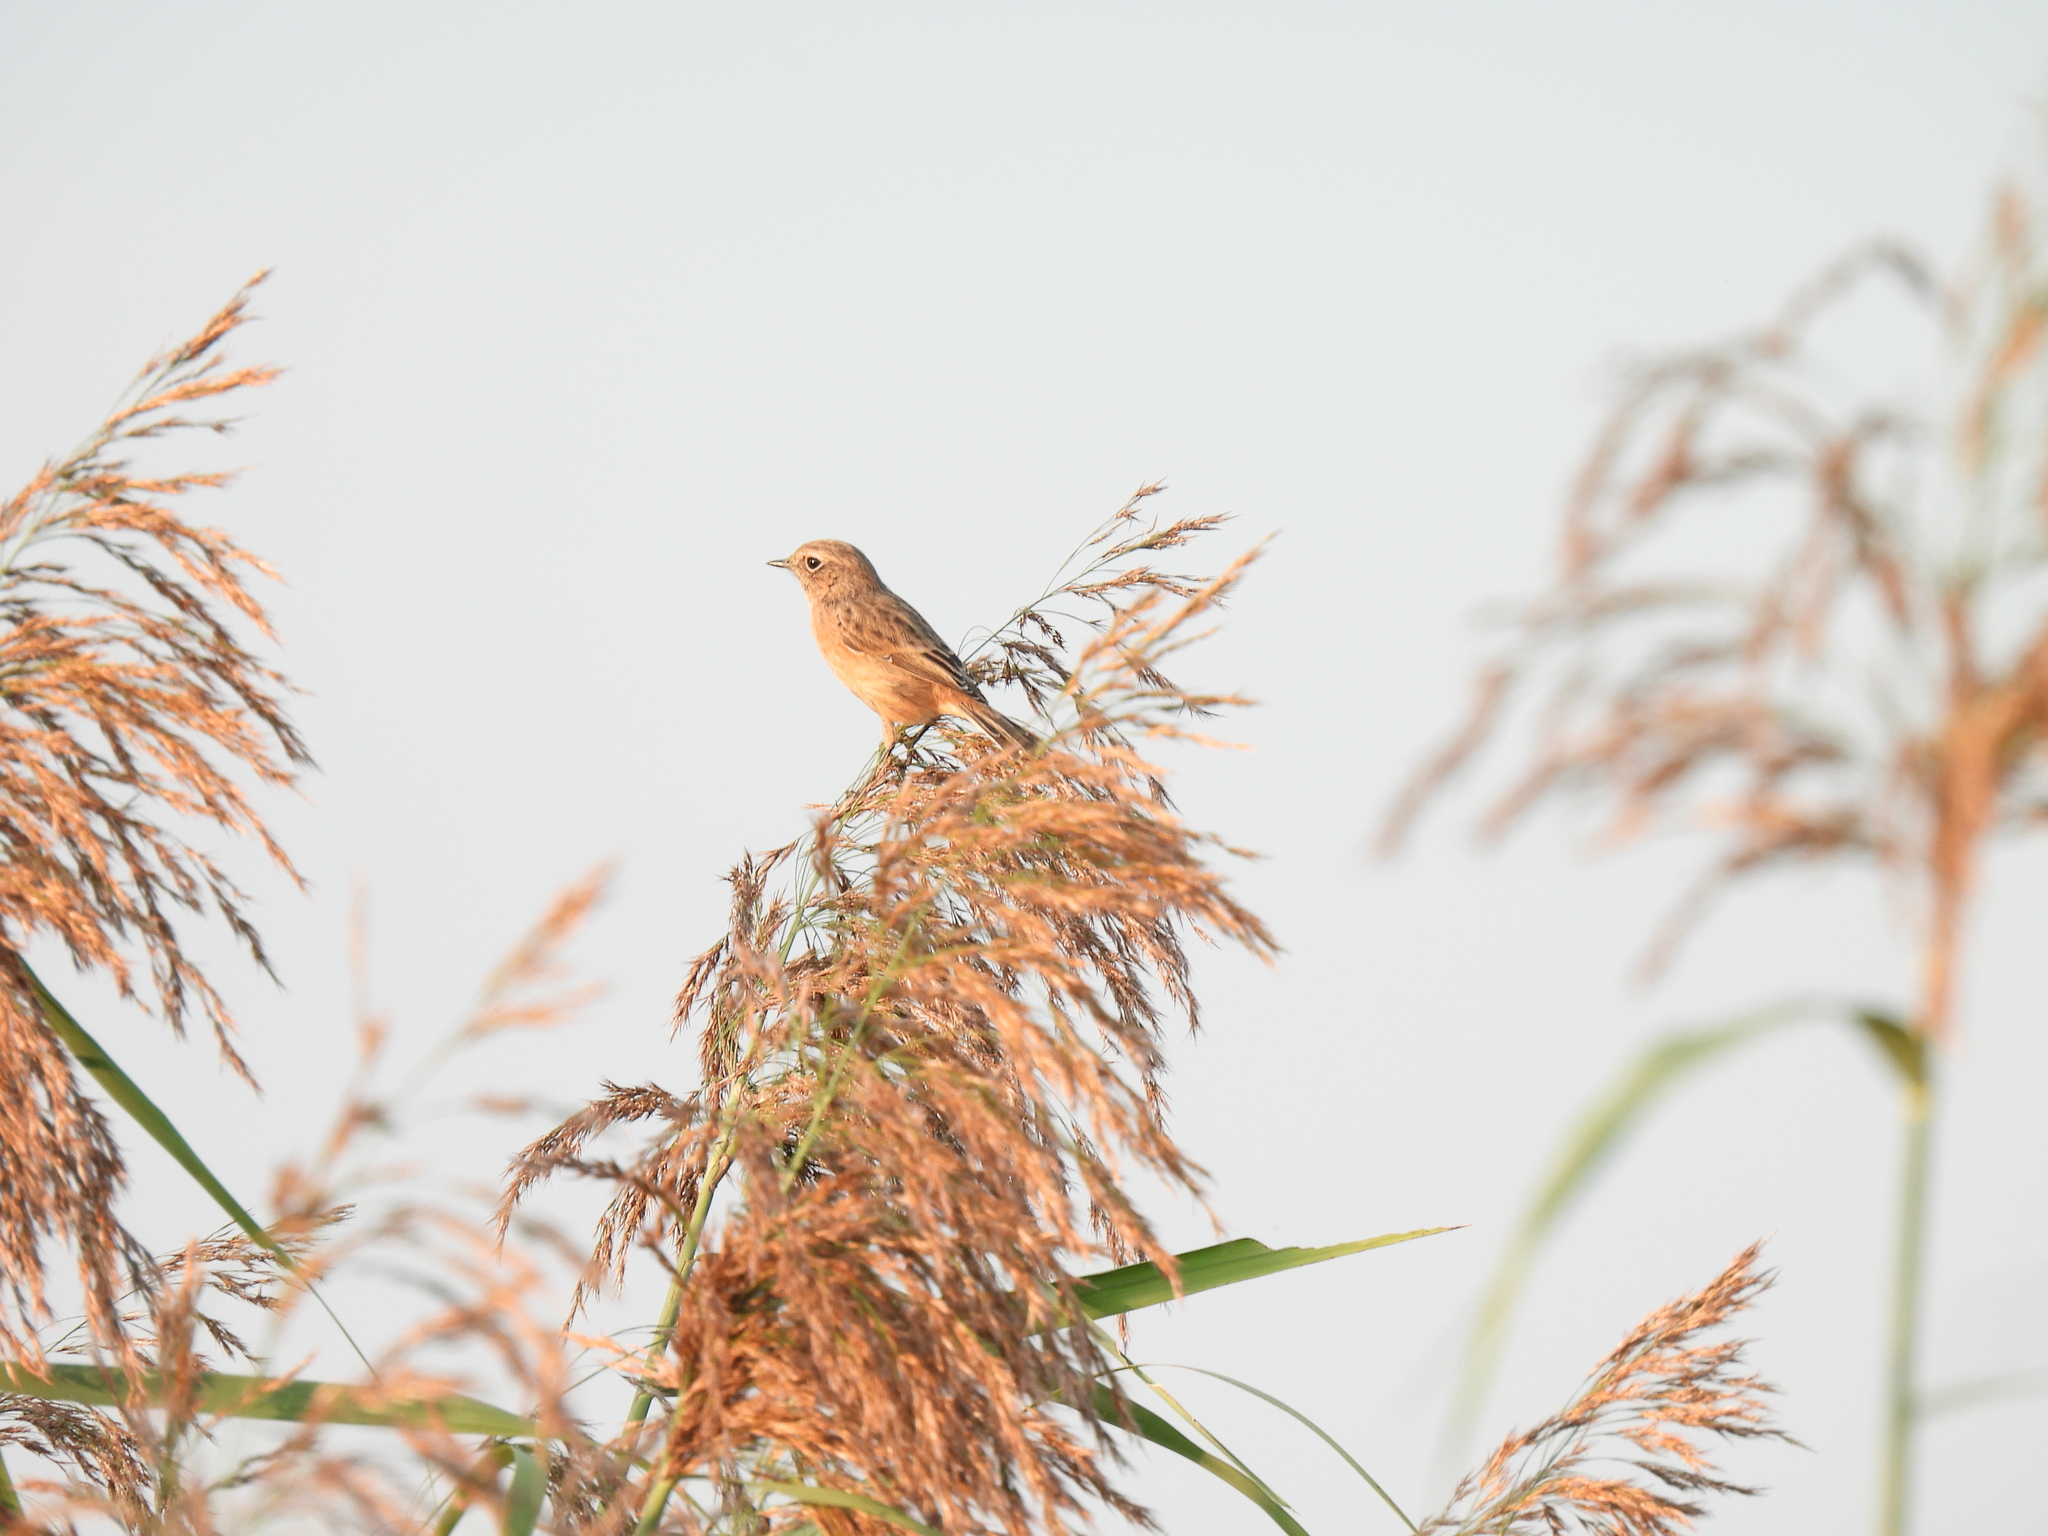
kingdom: Animalia
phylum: Chordata
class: Aves
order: Passeriformes
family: Muscicapidae
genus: Saxicola
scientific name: Saxicola rubicola
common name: European stonechat
